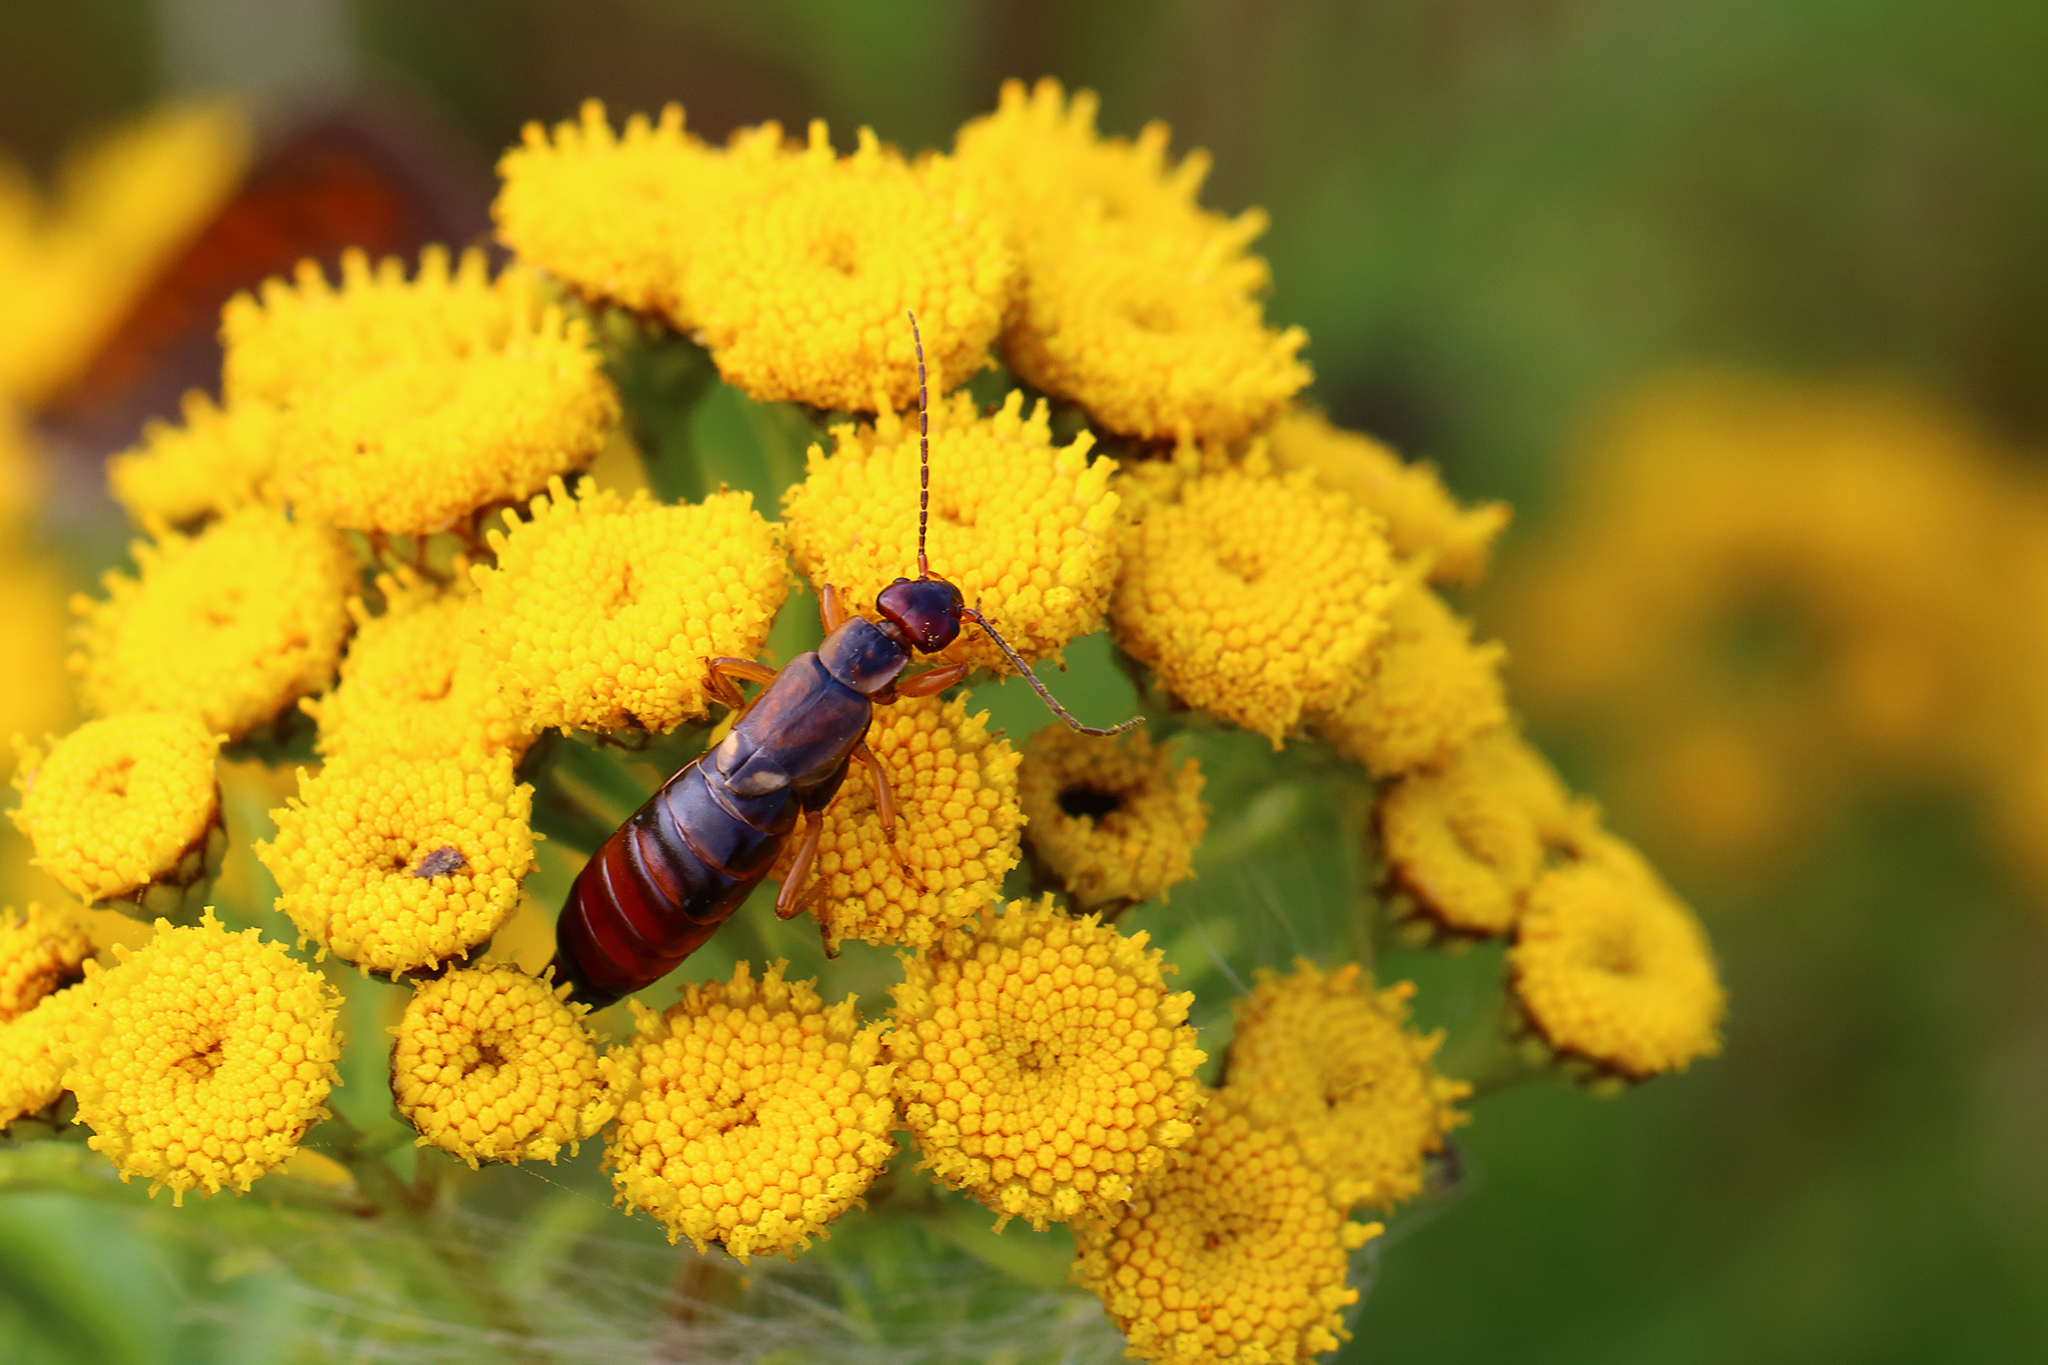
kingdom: Animalia
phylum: Arthropoda
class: Insecta
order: Dermaptera
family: Forficulidae
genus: Forficula
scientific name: Forficula
